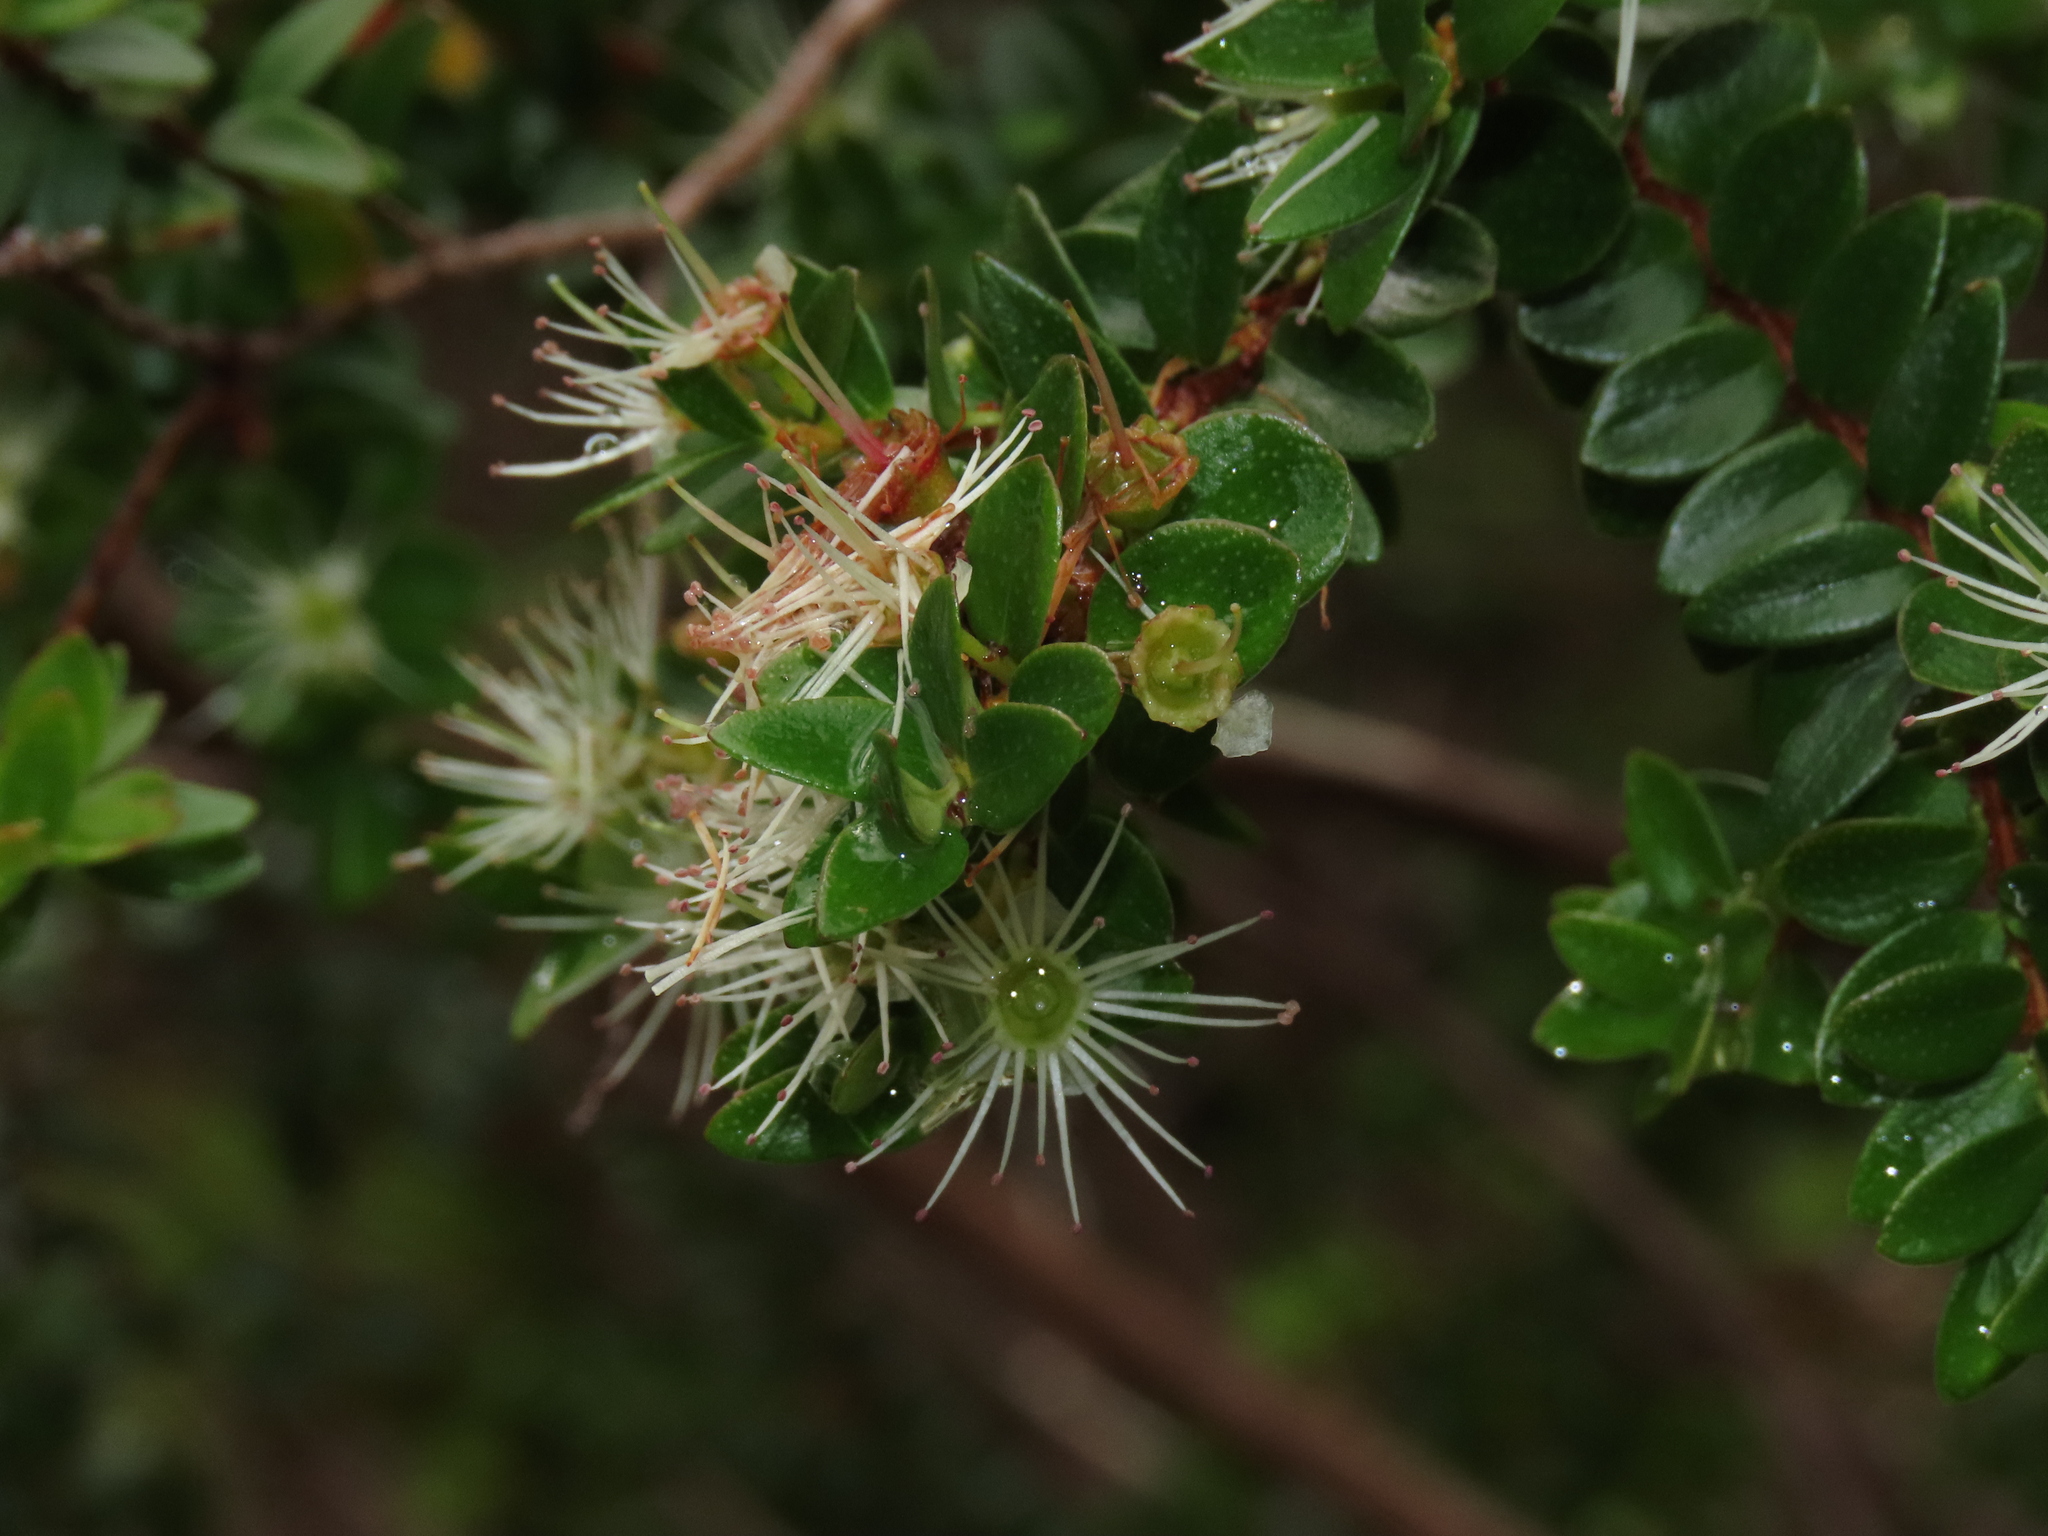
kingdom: Plantae
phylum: Tracheophyta
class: Magnoliopsida
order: Myrtales
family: Myrtaceae
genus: Tepualia
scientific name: Tepualia stipularis
